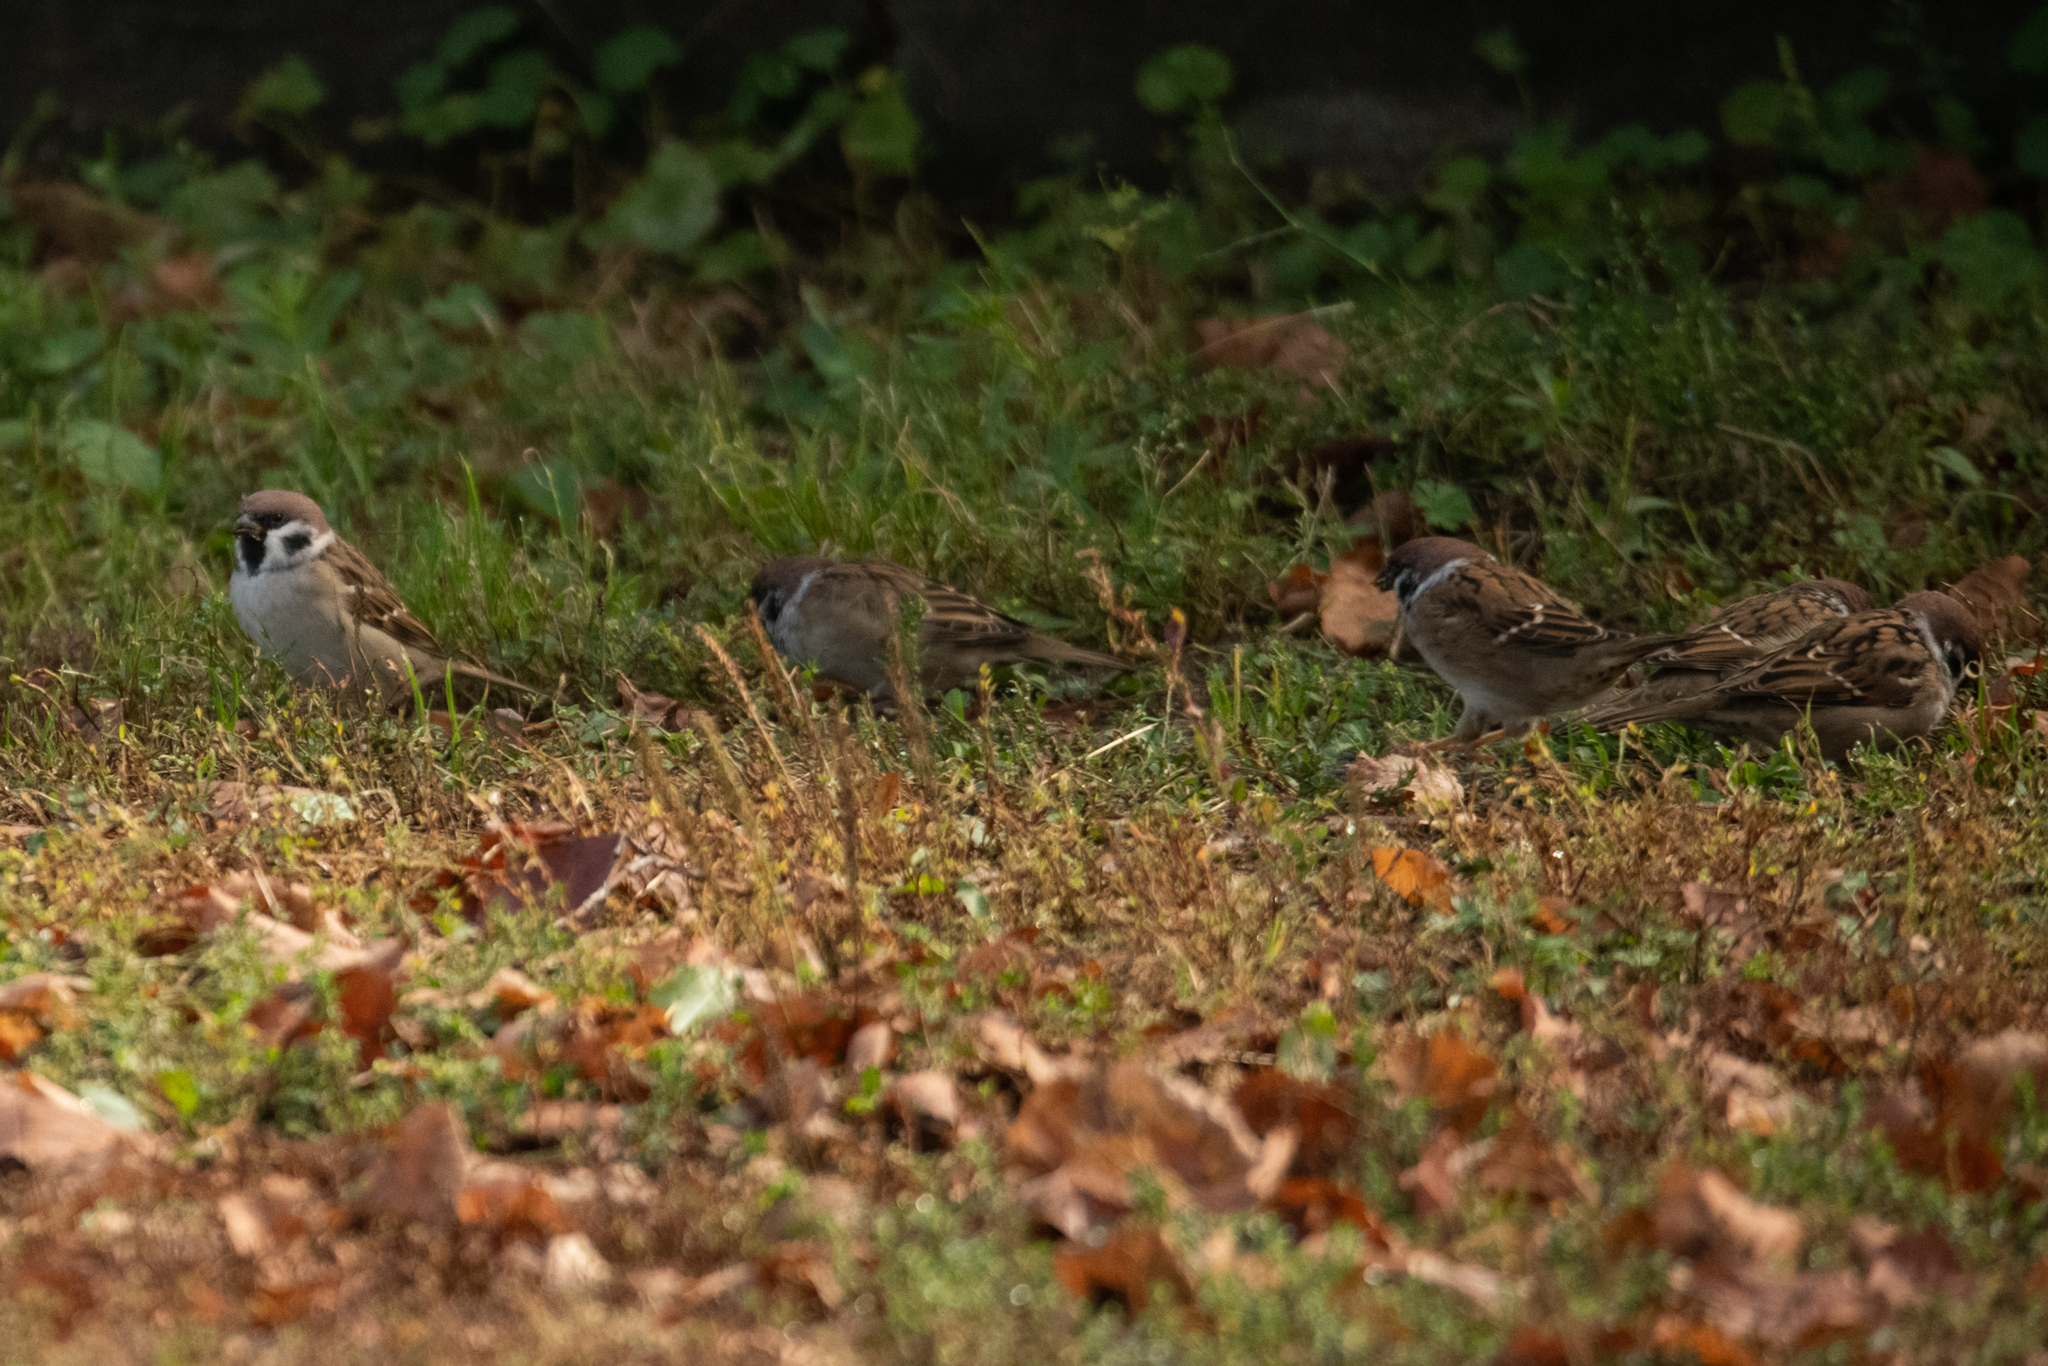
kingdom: Animalia
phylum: Chordata
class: Aves
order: Passeriformes
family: Passeridae
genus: Passer
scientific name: Passer montanus
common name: Eurasian tree sparrow
